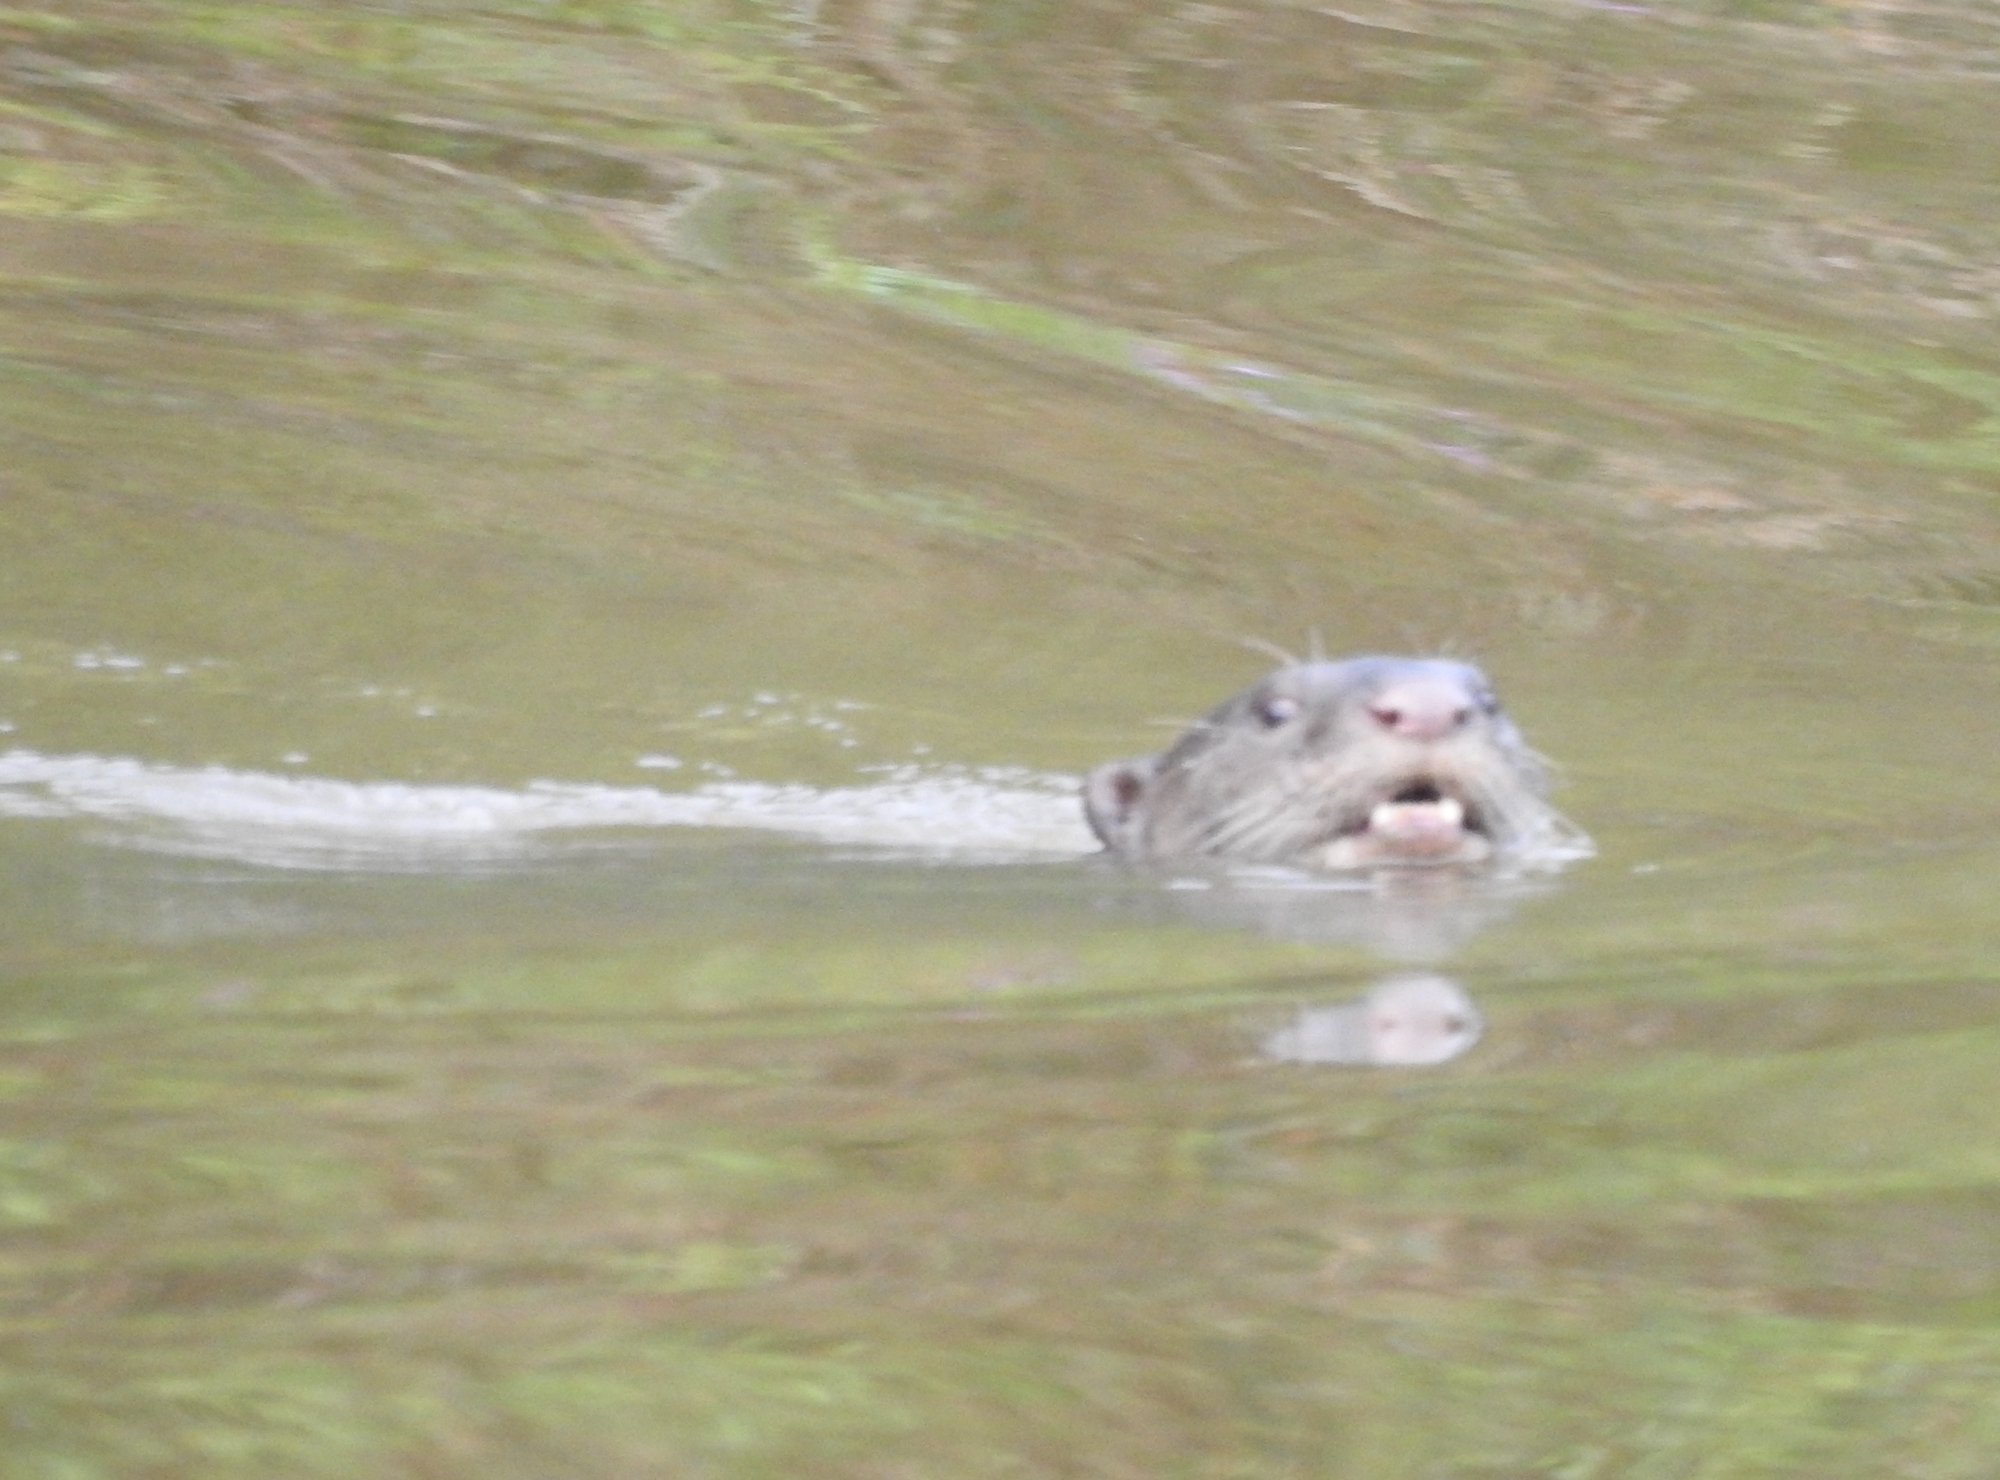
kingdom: Animalia
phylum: Chordata
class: Mammalia
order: Carnivora
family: Mustelidae
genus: Lutrogale
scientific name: Lutrogale perspicillata
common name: Smooth-coated otter
